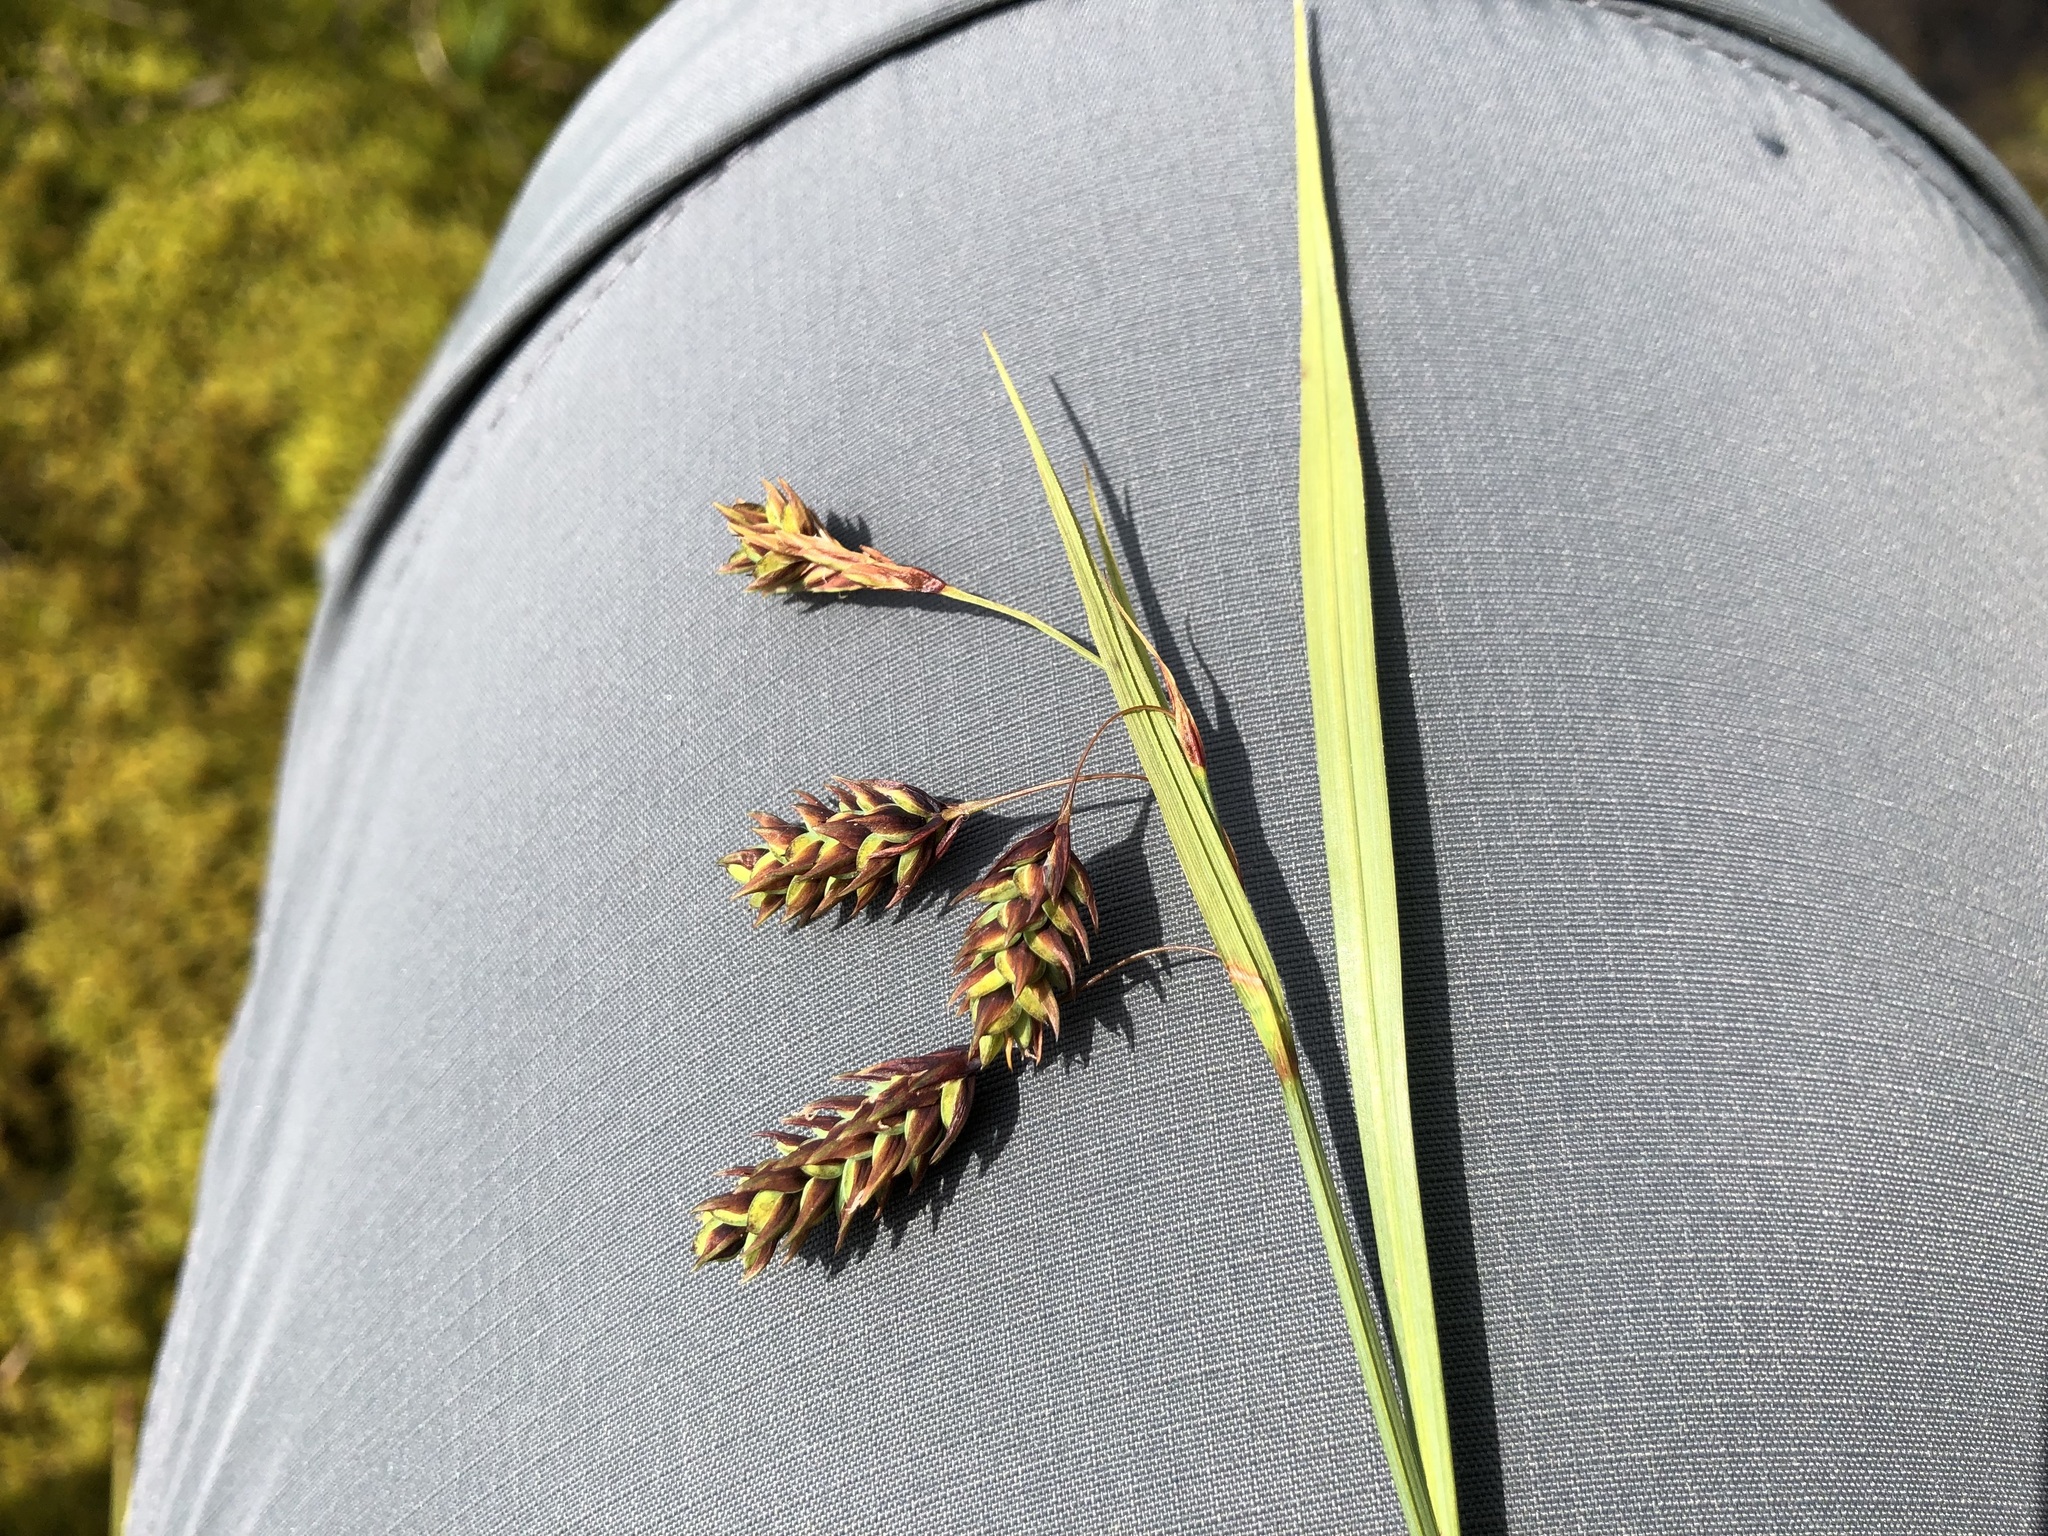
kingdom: Plantae
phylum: Tracheophyta
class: Liliopsida
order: Poales
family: Cyperaceae
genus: Carex
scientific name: Carex magellanica
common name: Bog sedge
